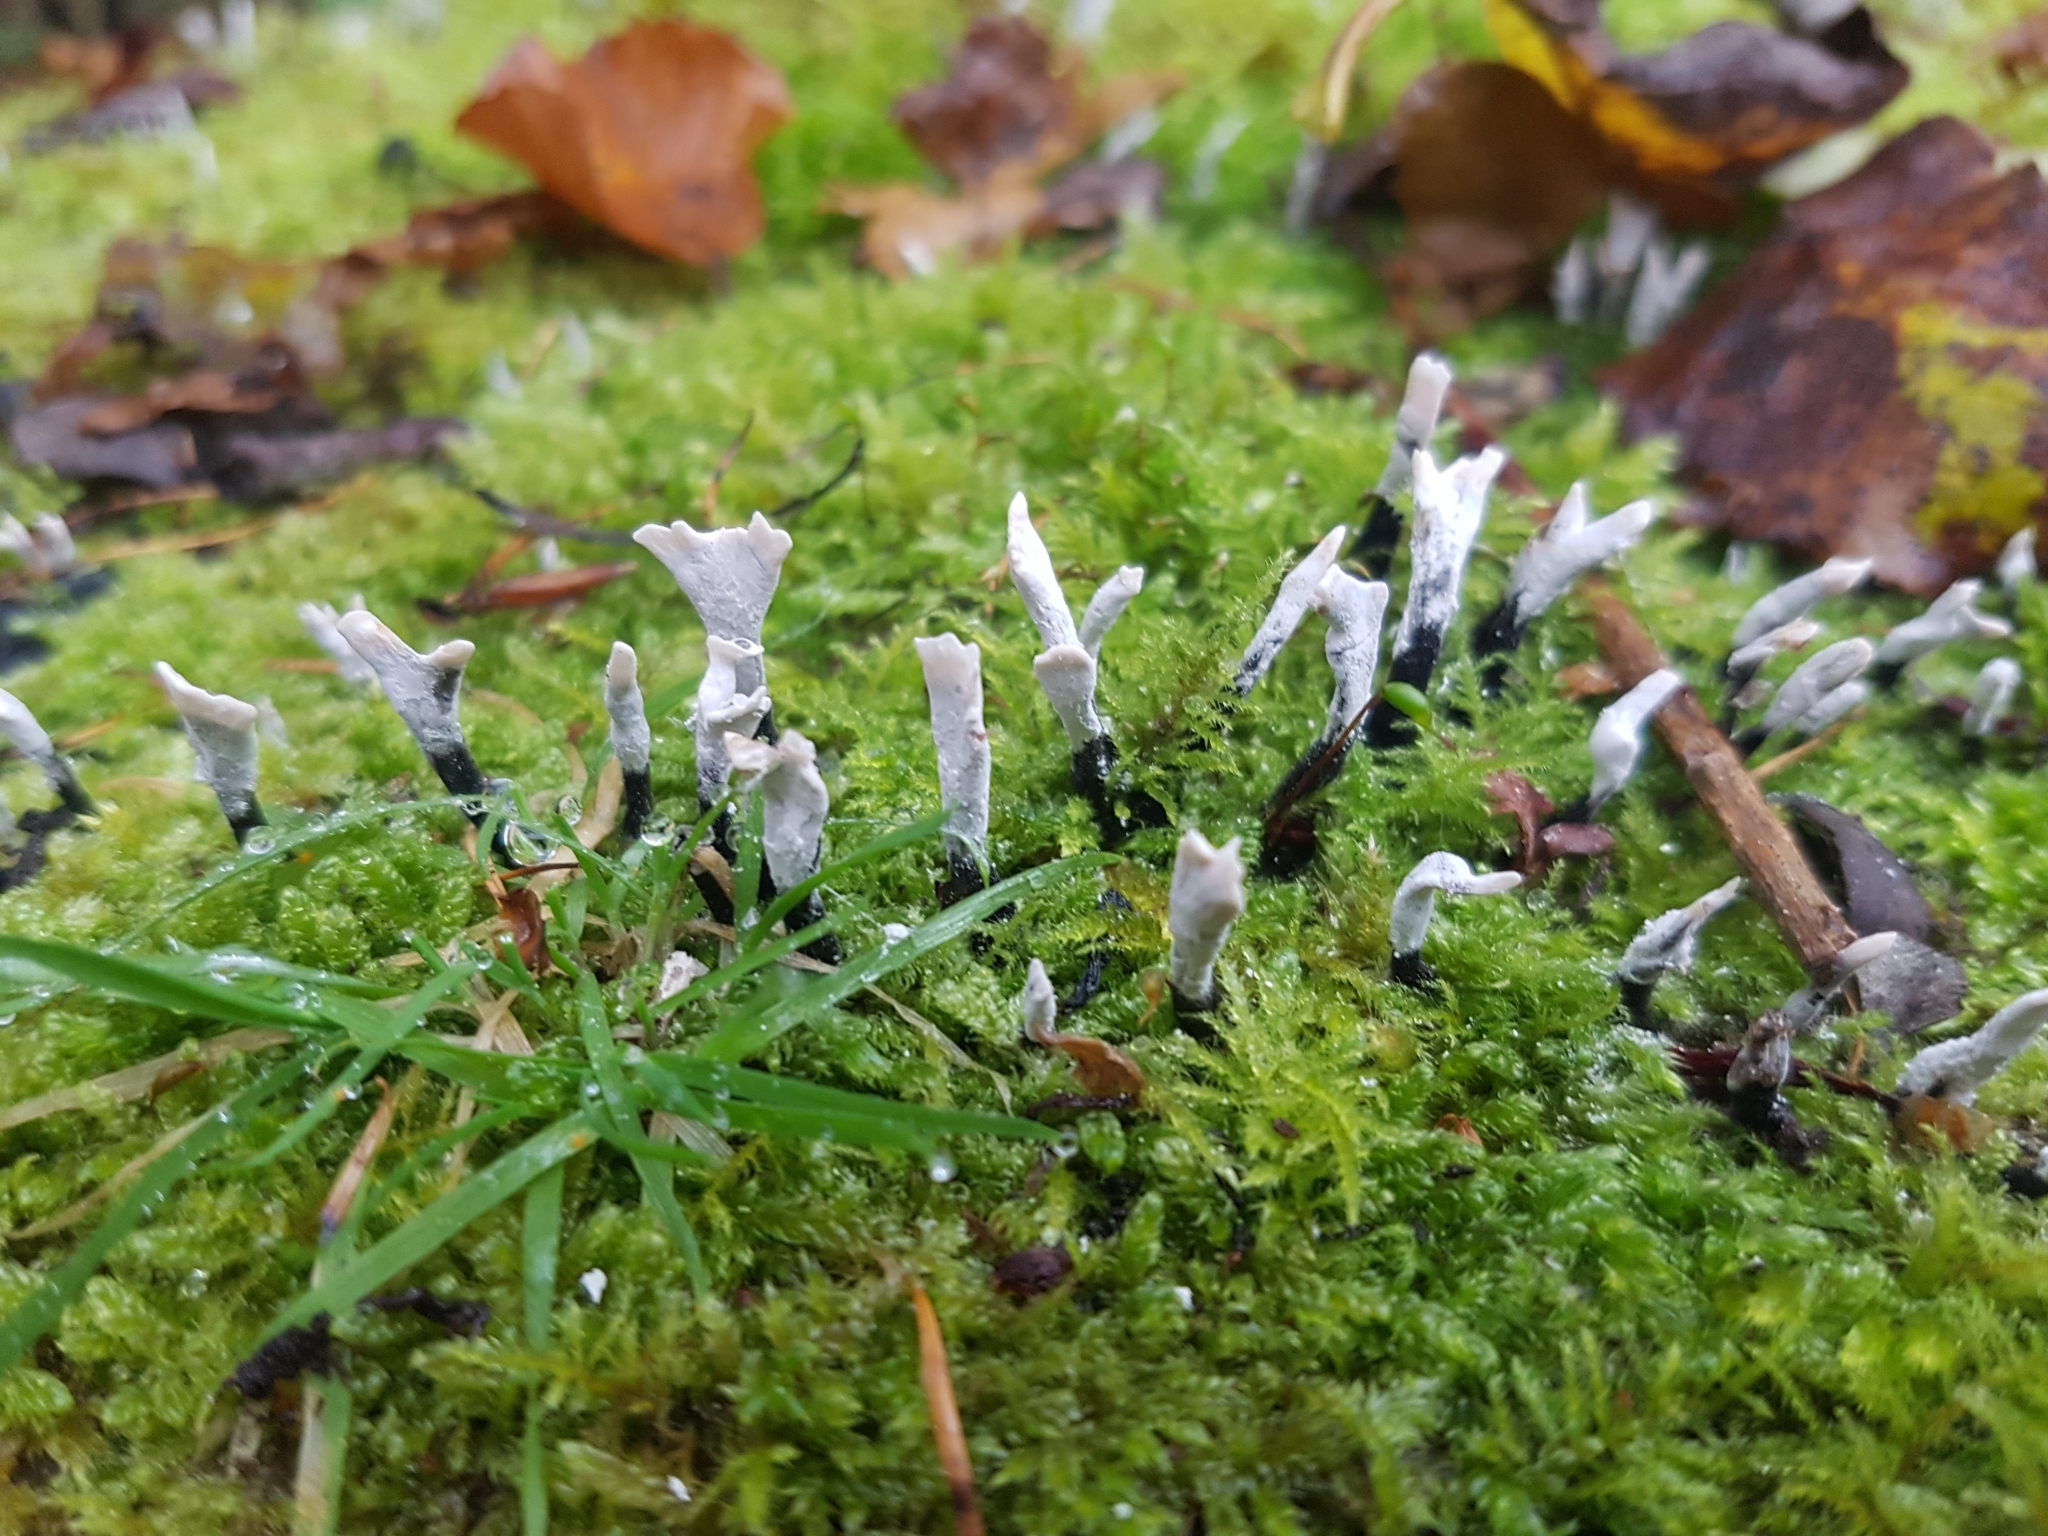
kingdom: Fungi
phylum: Ascomycota
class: Sordariomycetes
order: Xylariales
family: Xylariaceae
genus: Xylaria
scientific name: Xylaria hypoxylon
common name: Candle-snuff fungus
